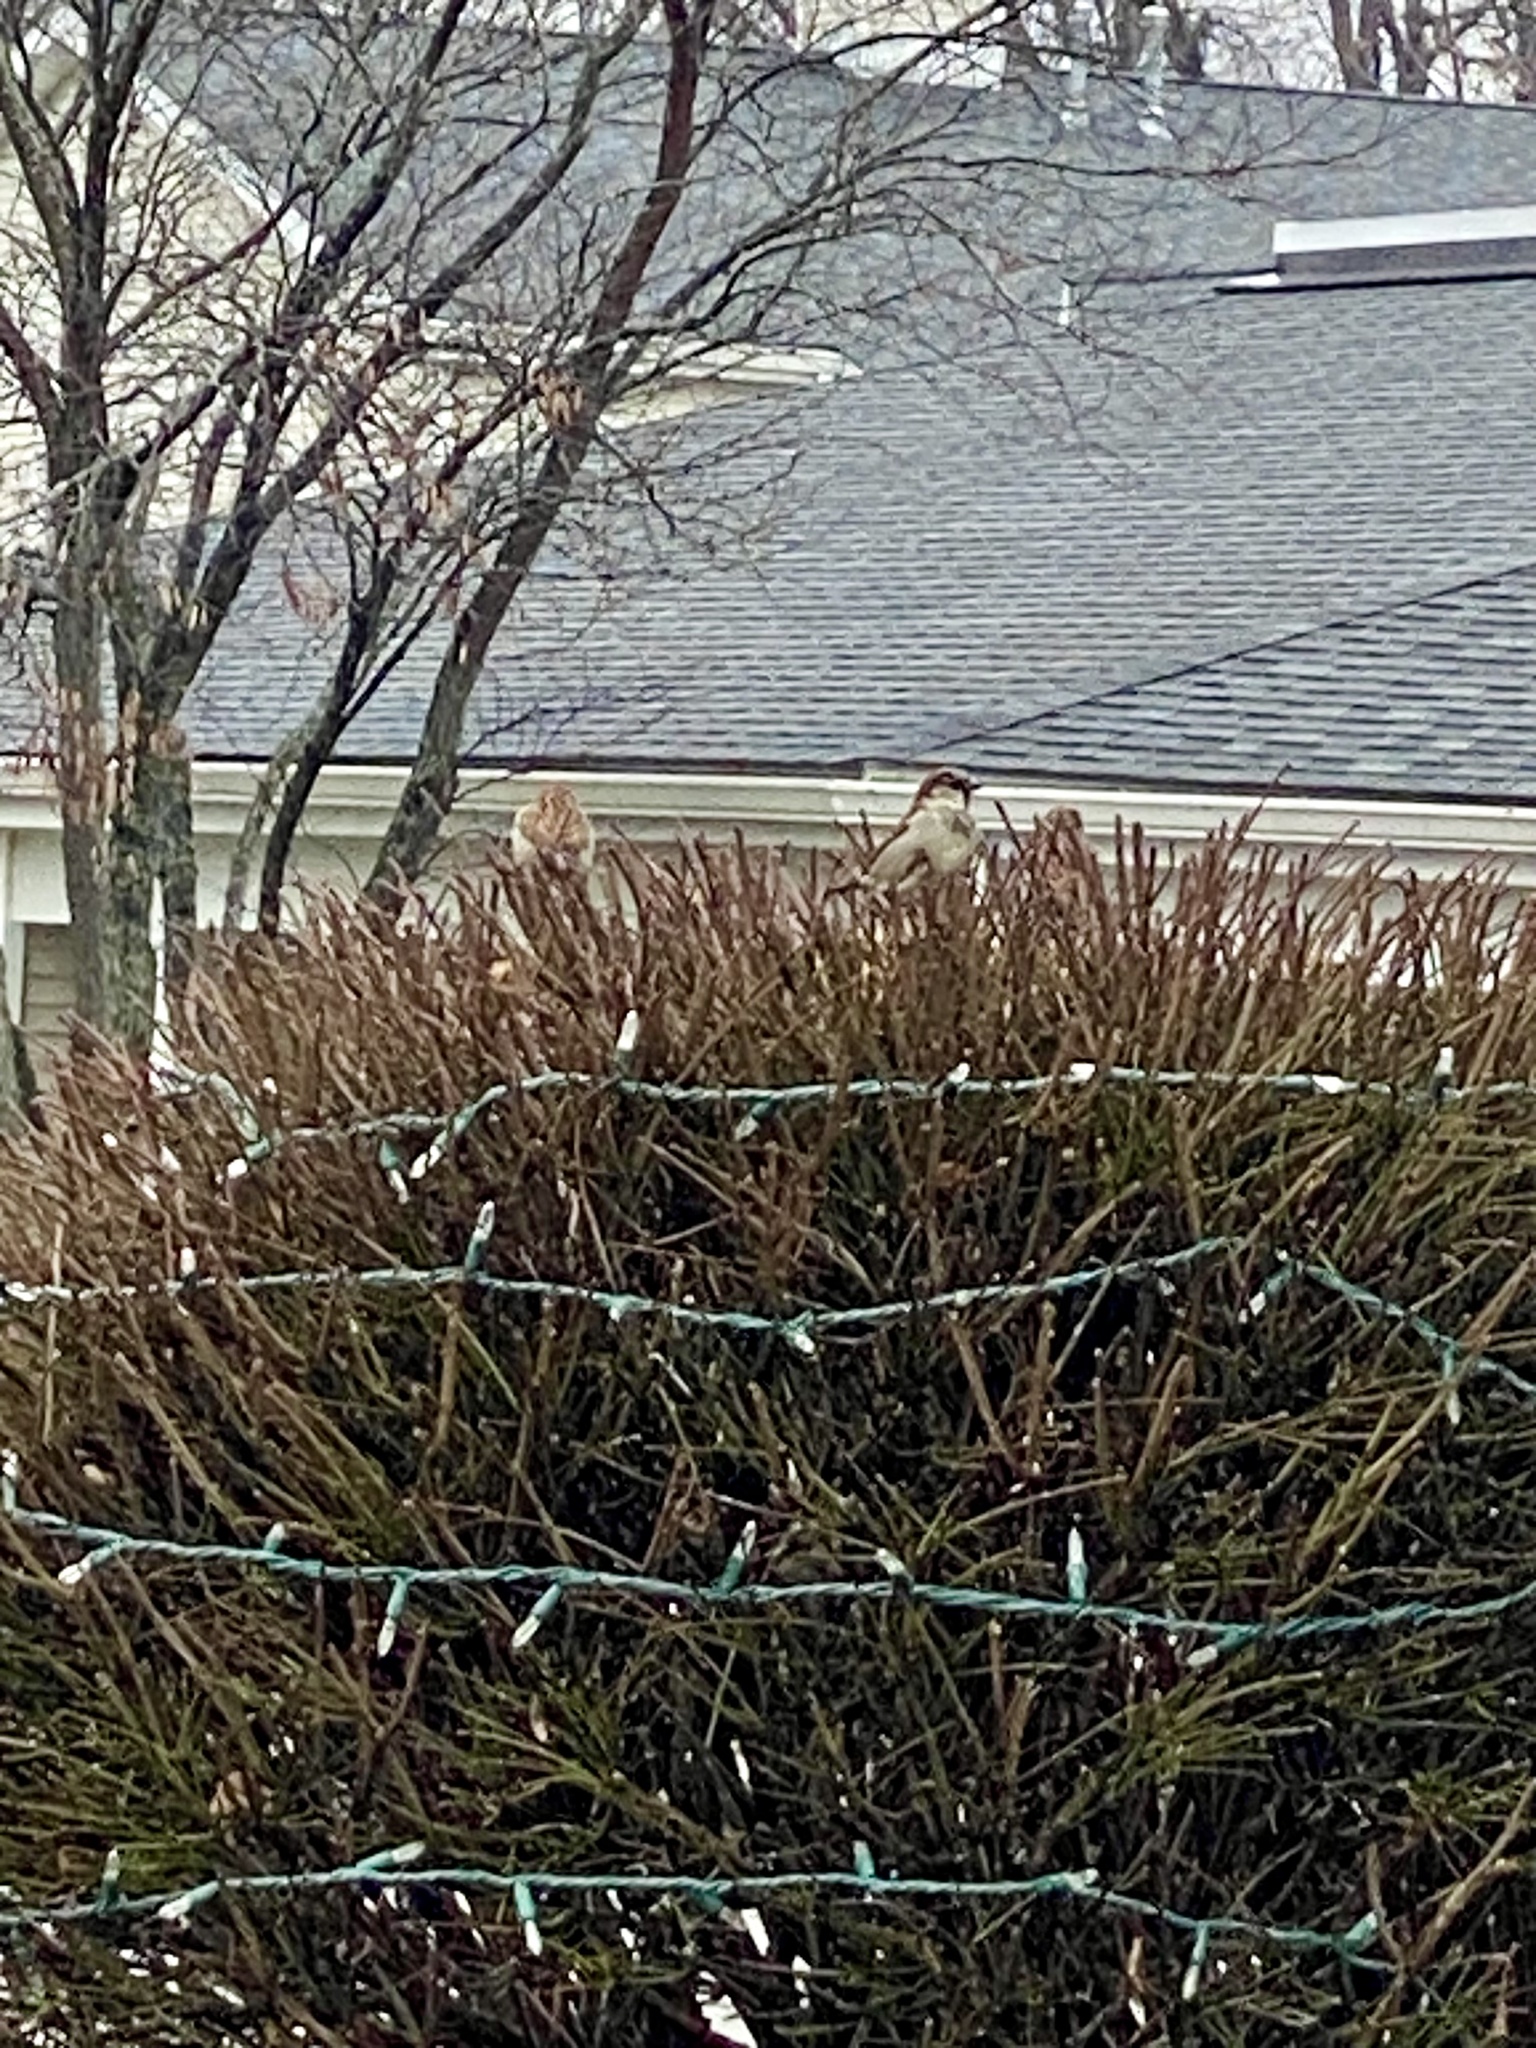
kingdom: Animalia
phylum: Chordata
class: Aves
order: Passeriformes
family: Passeridae
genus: Passer
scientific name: Passer domesticus
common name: House sparrow
